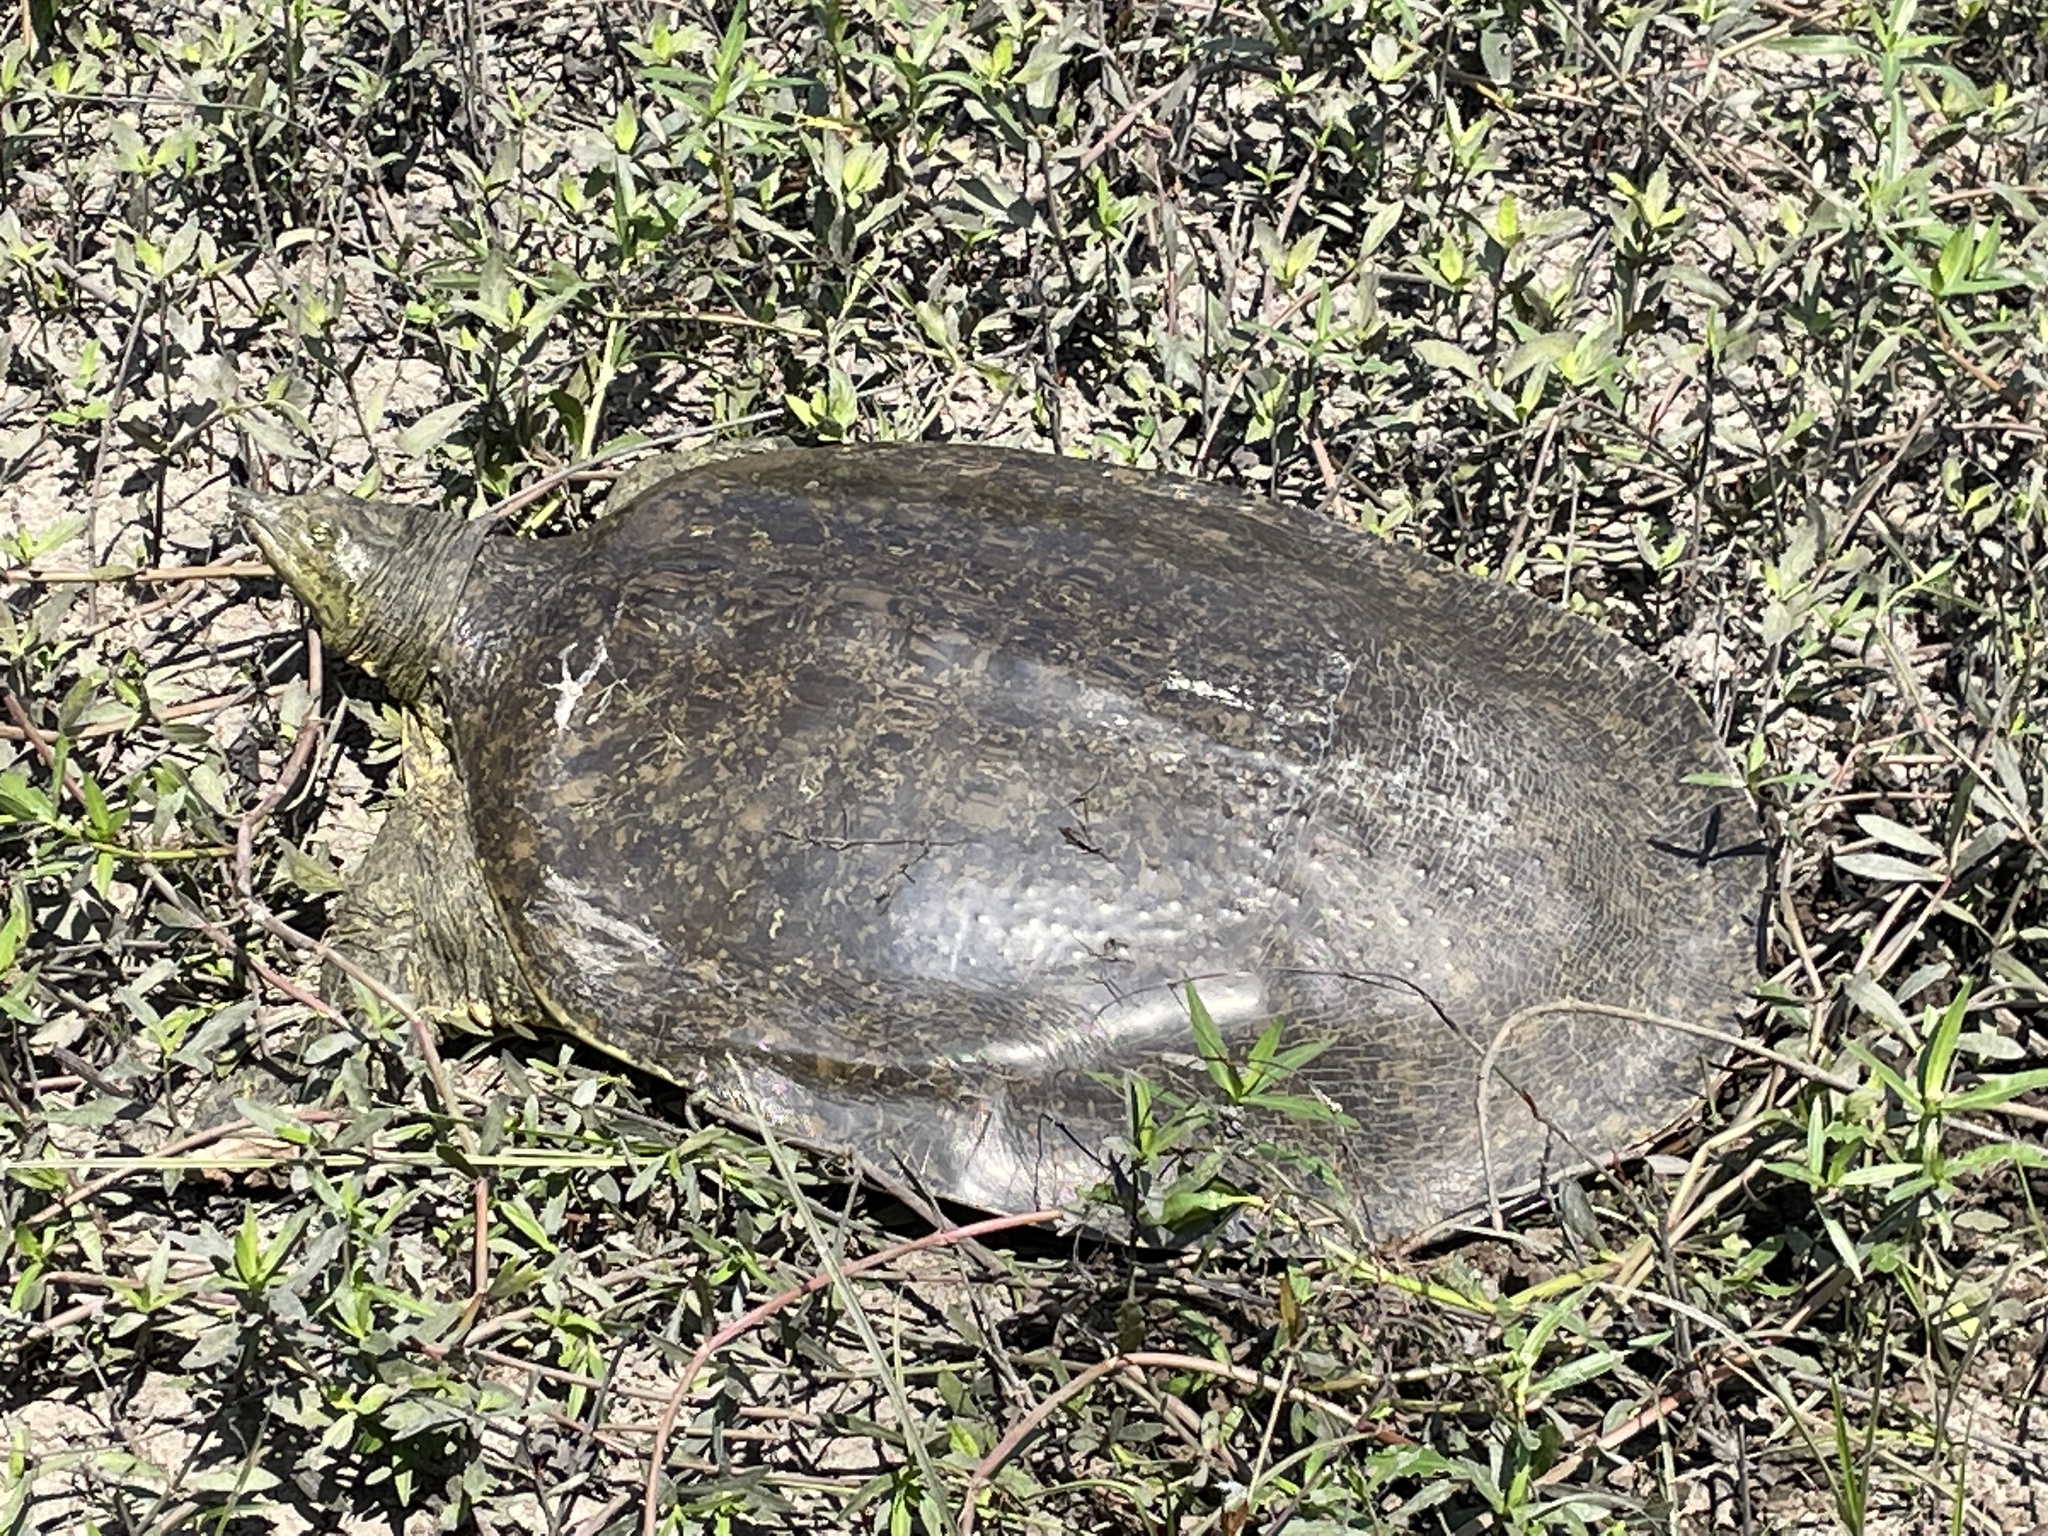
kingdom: Animalia
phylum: Chordata
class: Testudines
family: Trionychidae
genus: Apalone
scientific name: Apalone spinifera
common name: Spiny softshell turtle
